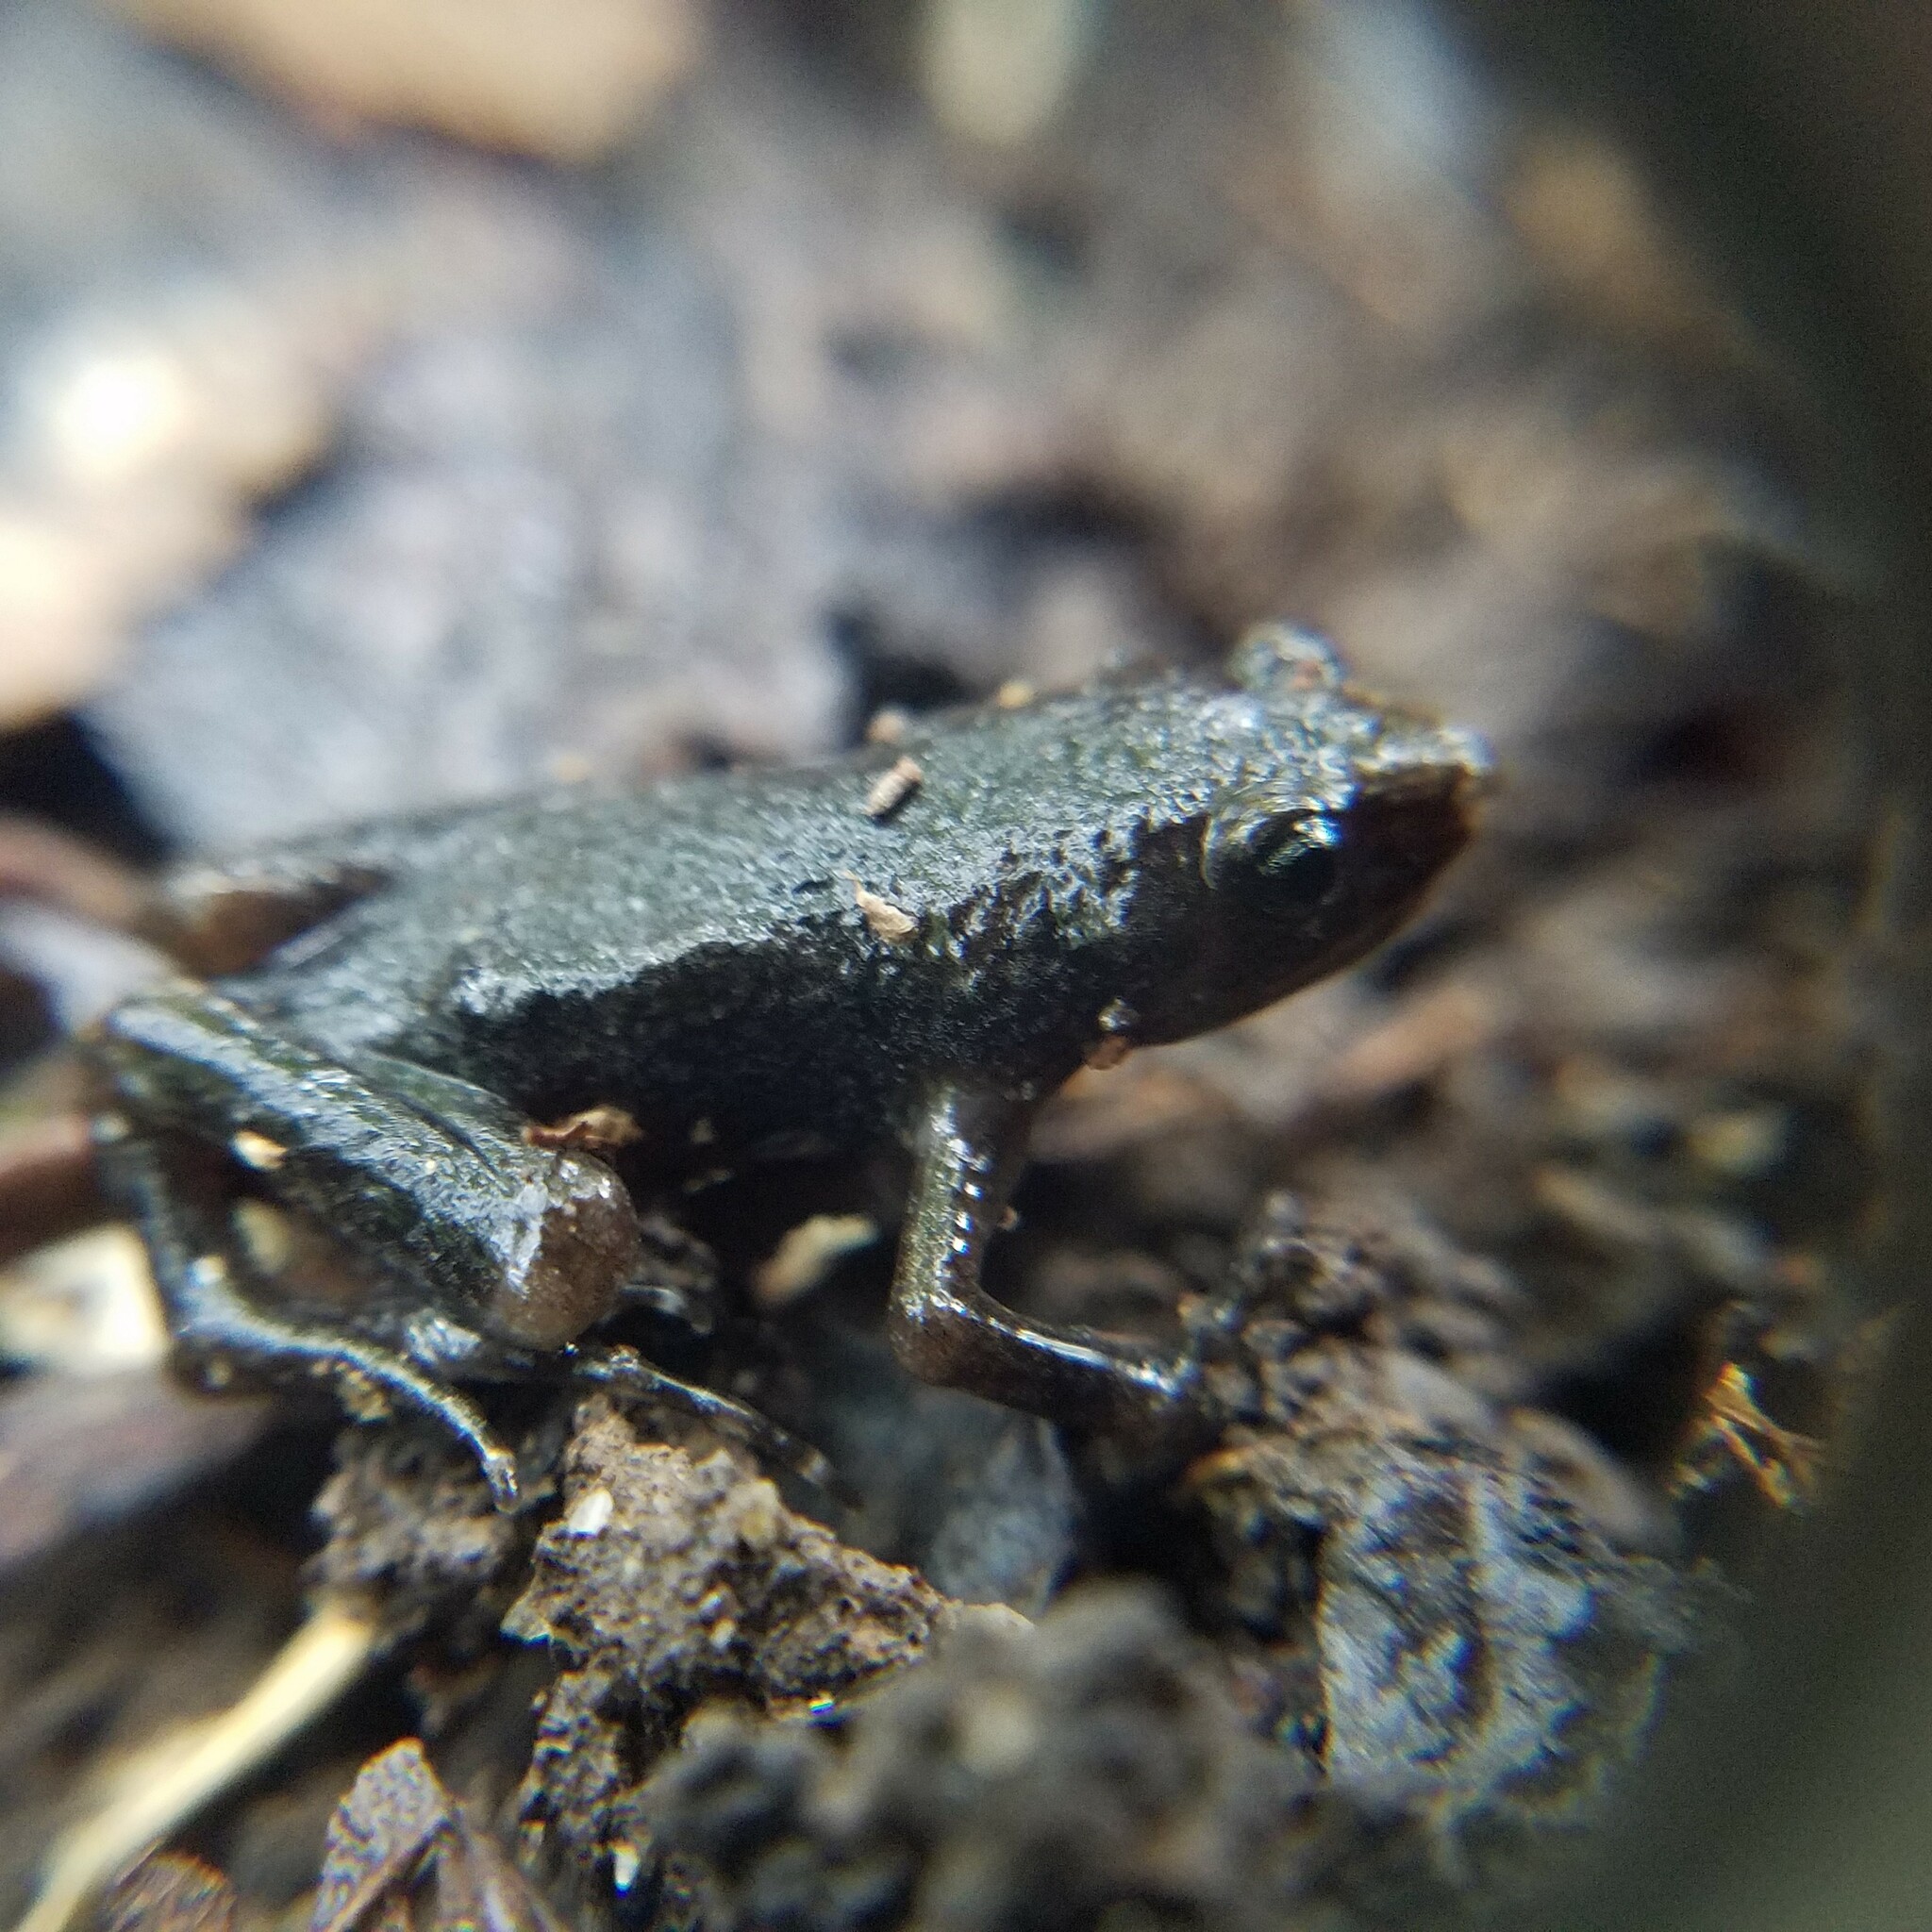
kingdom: Animalia
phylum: Chordata
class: Amphibia
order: Anura
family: Microhylidae
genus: Gastrophryne
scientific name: Gastrophryne carolinensis
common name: Eastern narrowmouth toad
